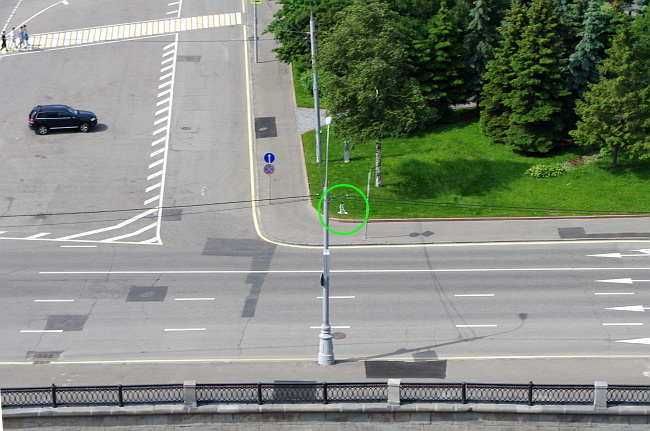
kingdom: Animalia
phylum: Chordata
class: Aves
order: Charadriiformes
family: Laridae
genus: Larus
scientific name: Larus canus
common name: Mew gull
